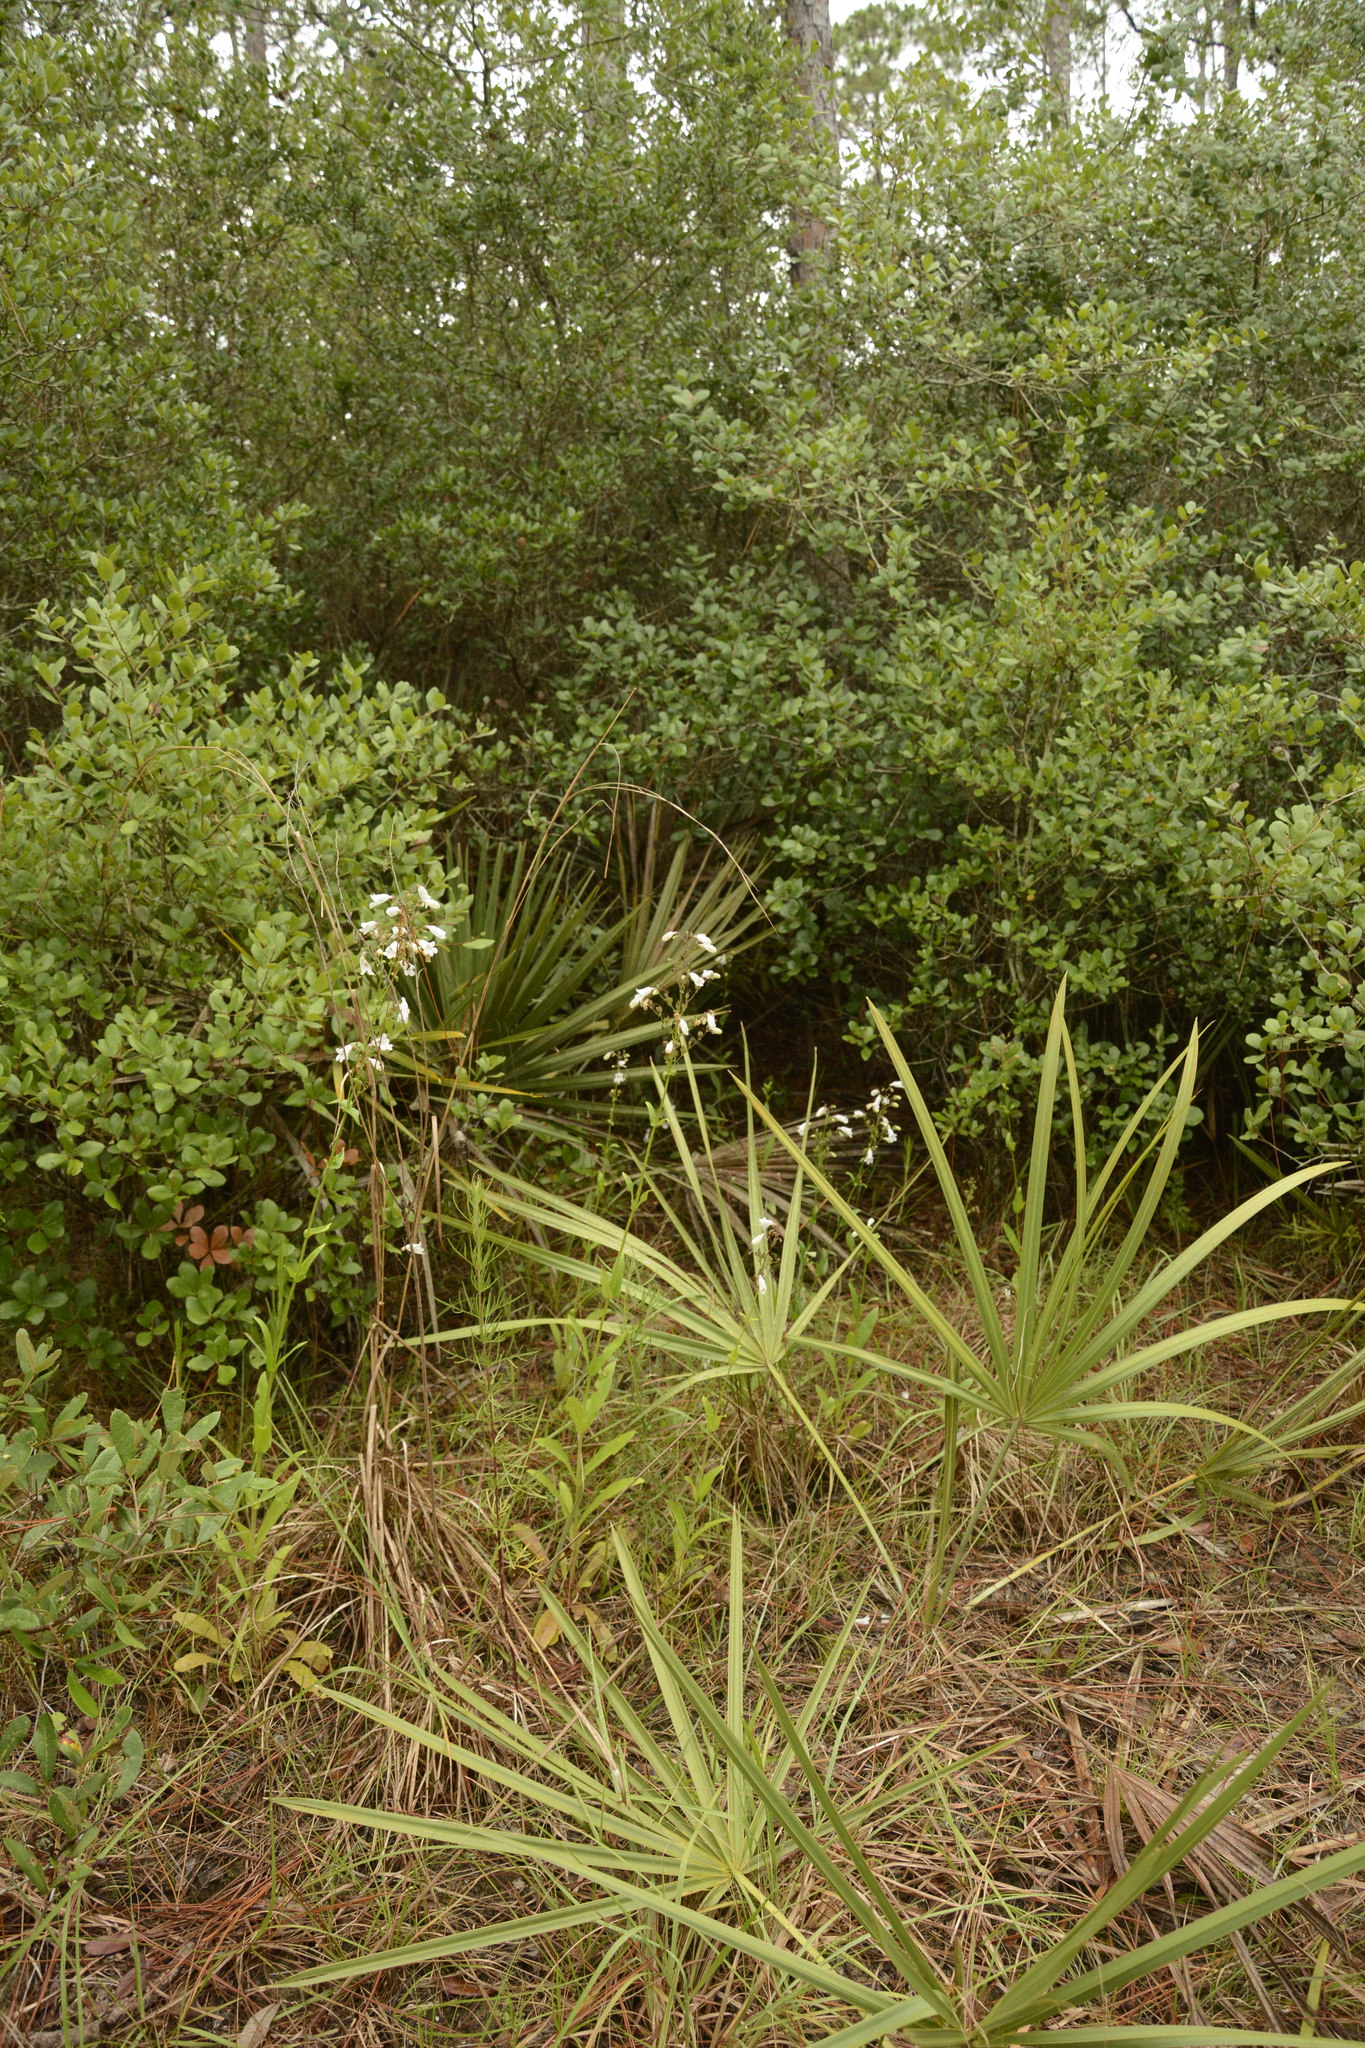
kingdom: Plantae
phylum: Tracheophyta
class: Magnoliopsida
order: Lamiales
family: Plantaginaceae
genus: Penstemon
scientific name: Penstemon multiflorus
